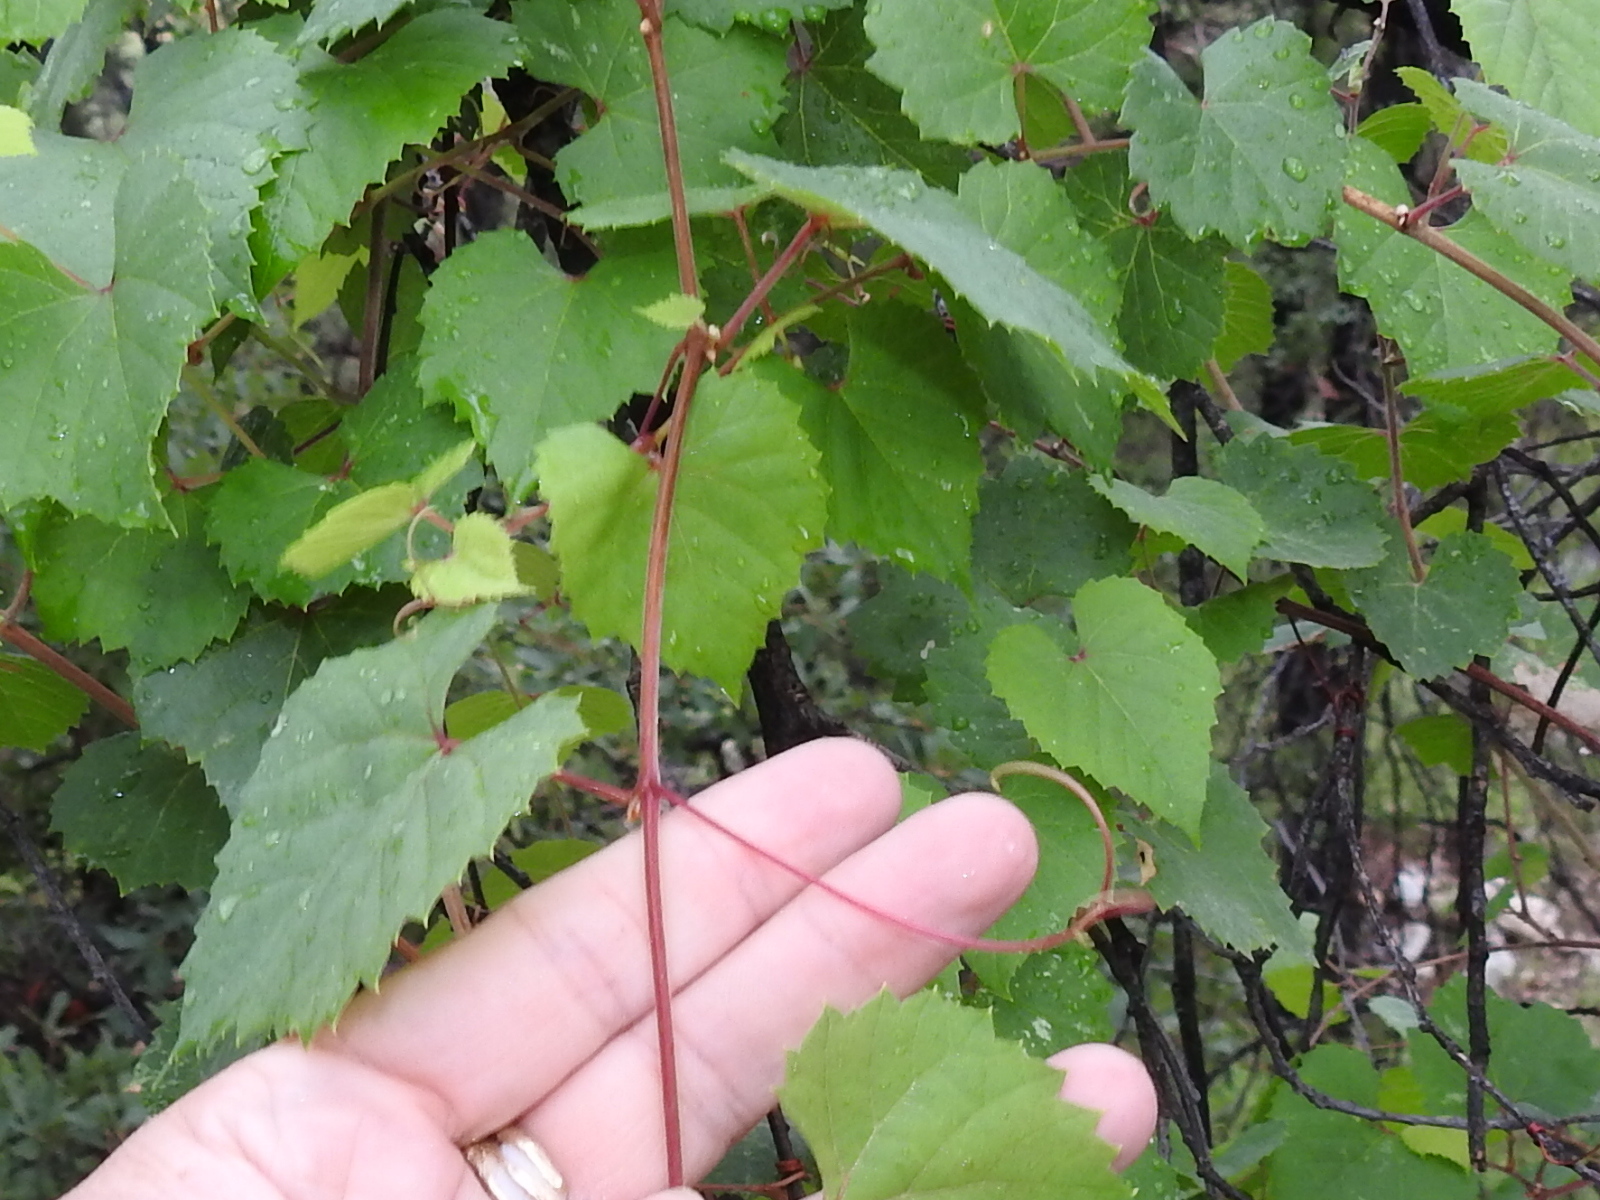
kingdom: Plantae
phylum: Tracheophyta
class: Magnoliopsida
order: Vitales
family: Vitaceae
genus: Vitis
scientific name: Vitis arizonica
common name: Canyon grape
